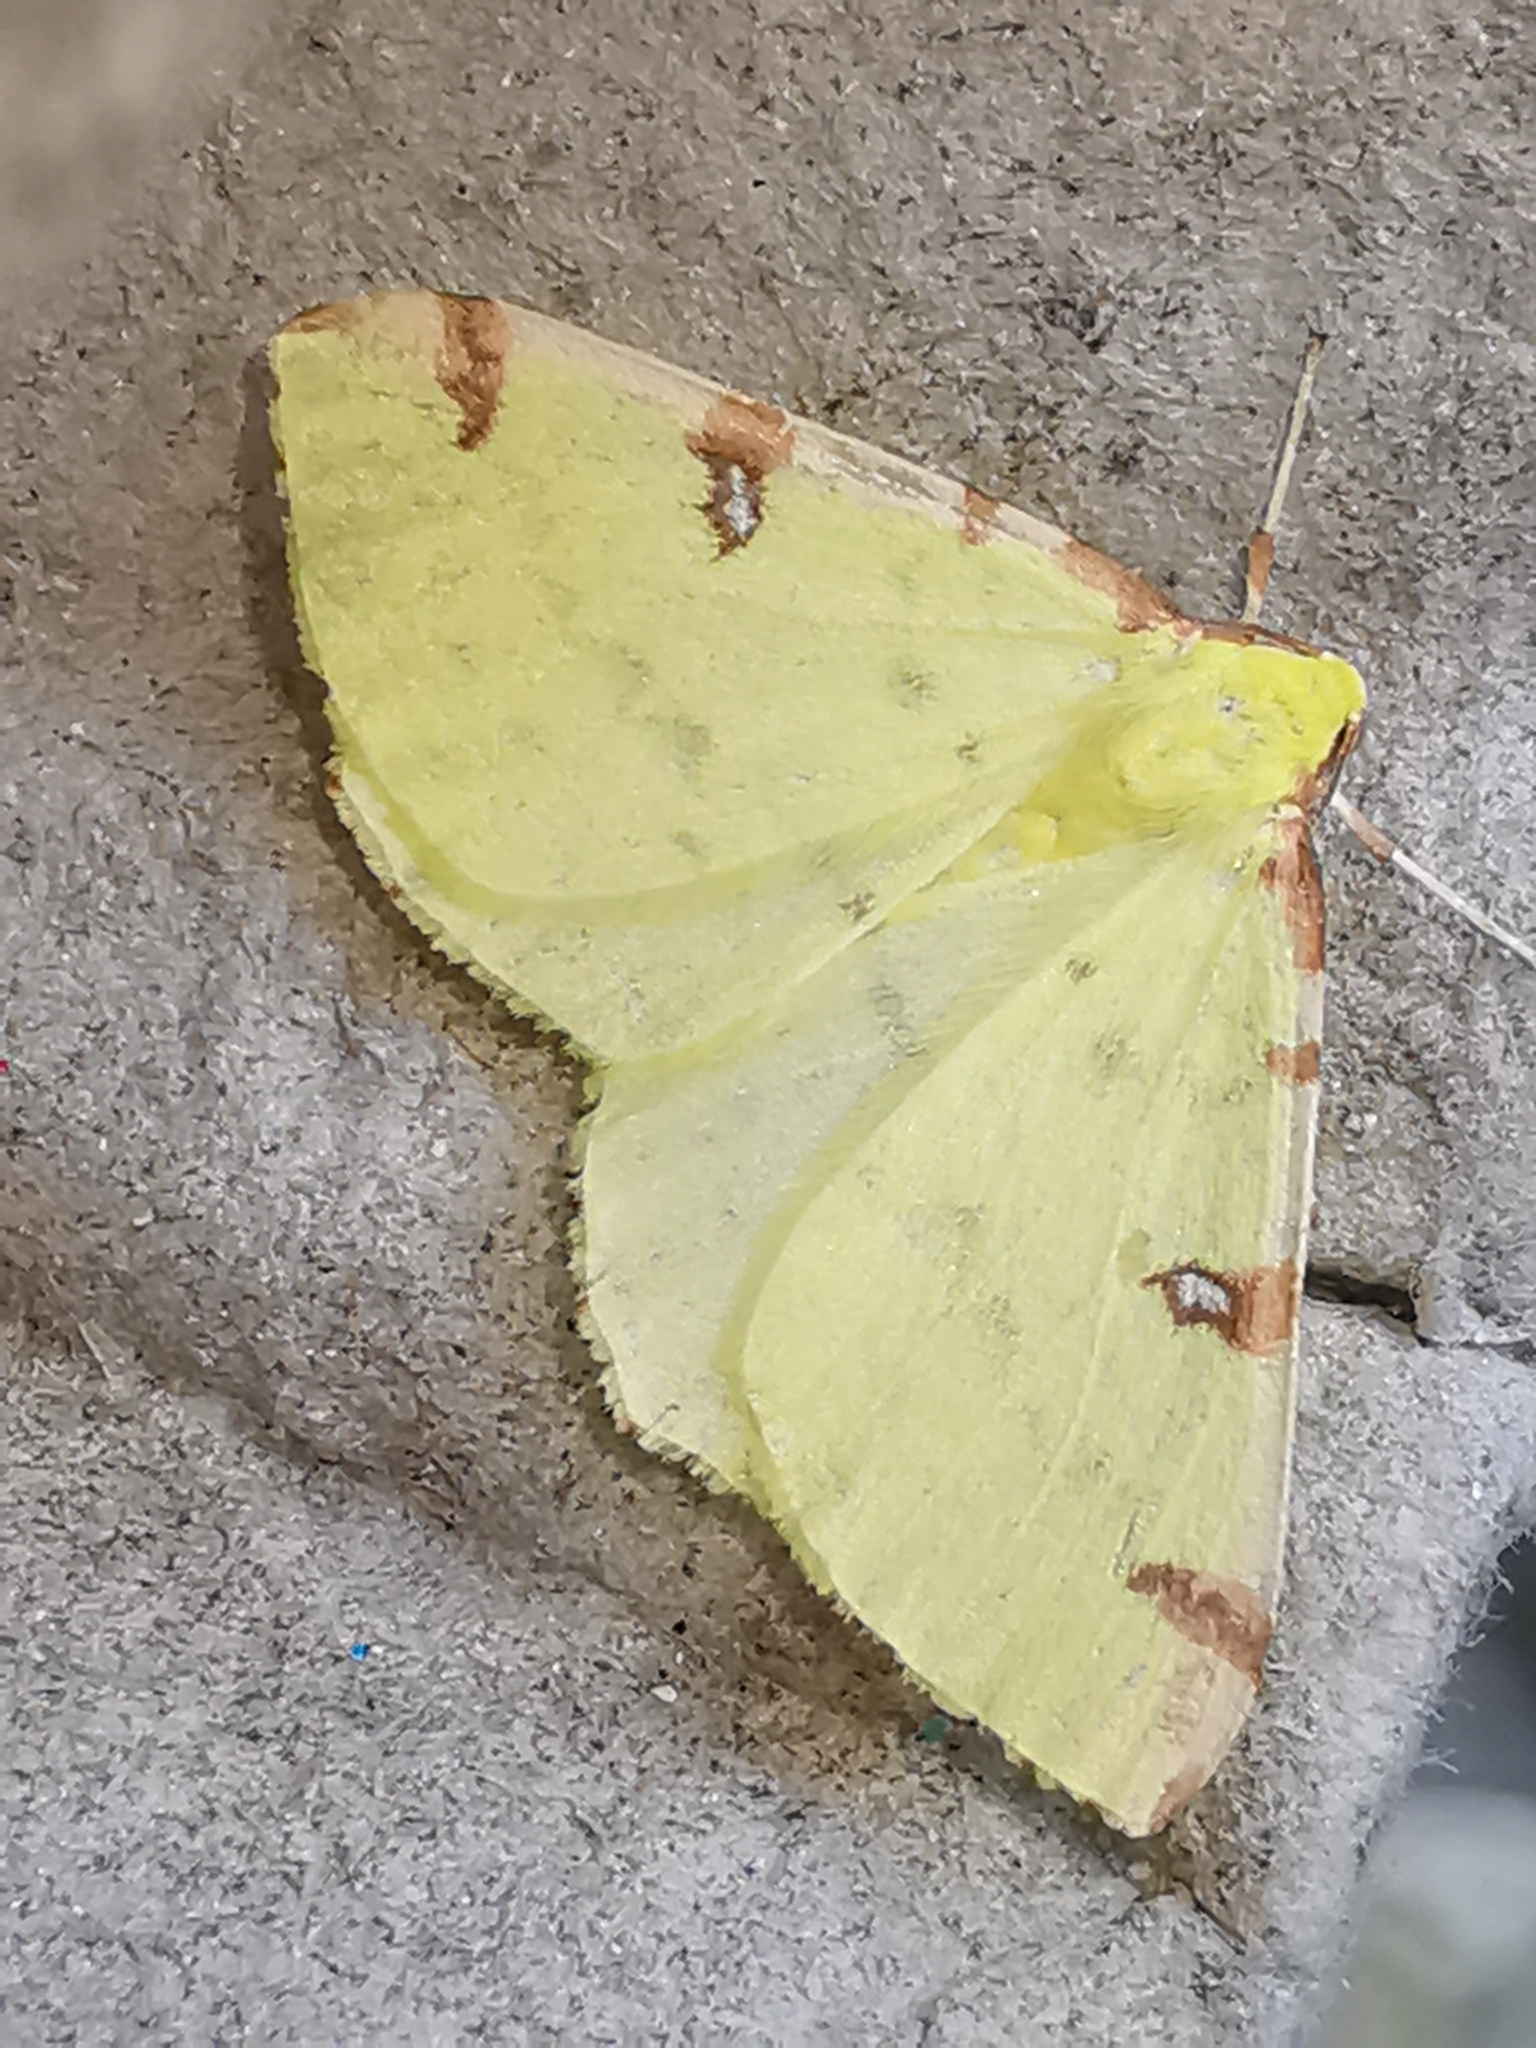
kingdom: Animalia
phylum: Arthropoda
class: Insecta
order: Lepidoptera
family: Geometridae
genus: Opisthograptis
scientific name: Opisthograptis luteolata
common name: Brimstone moth
